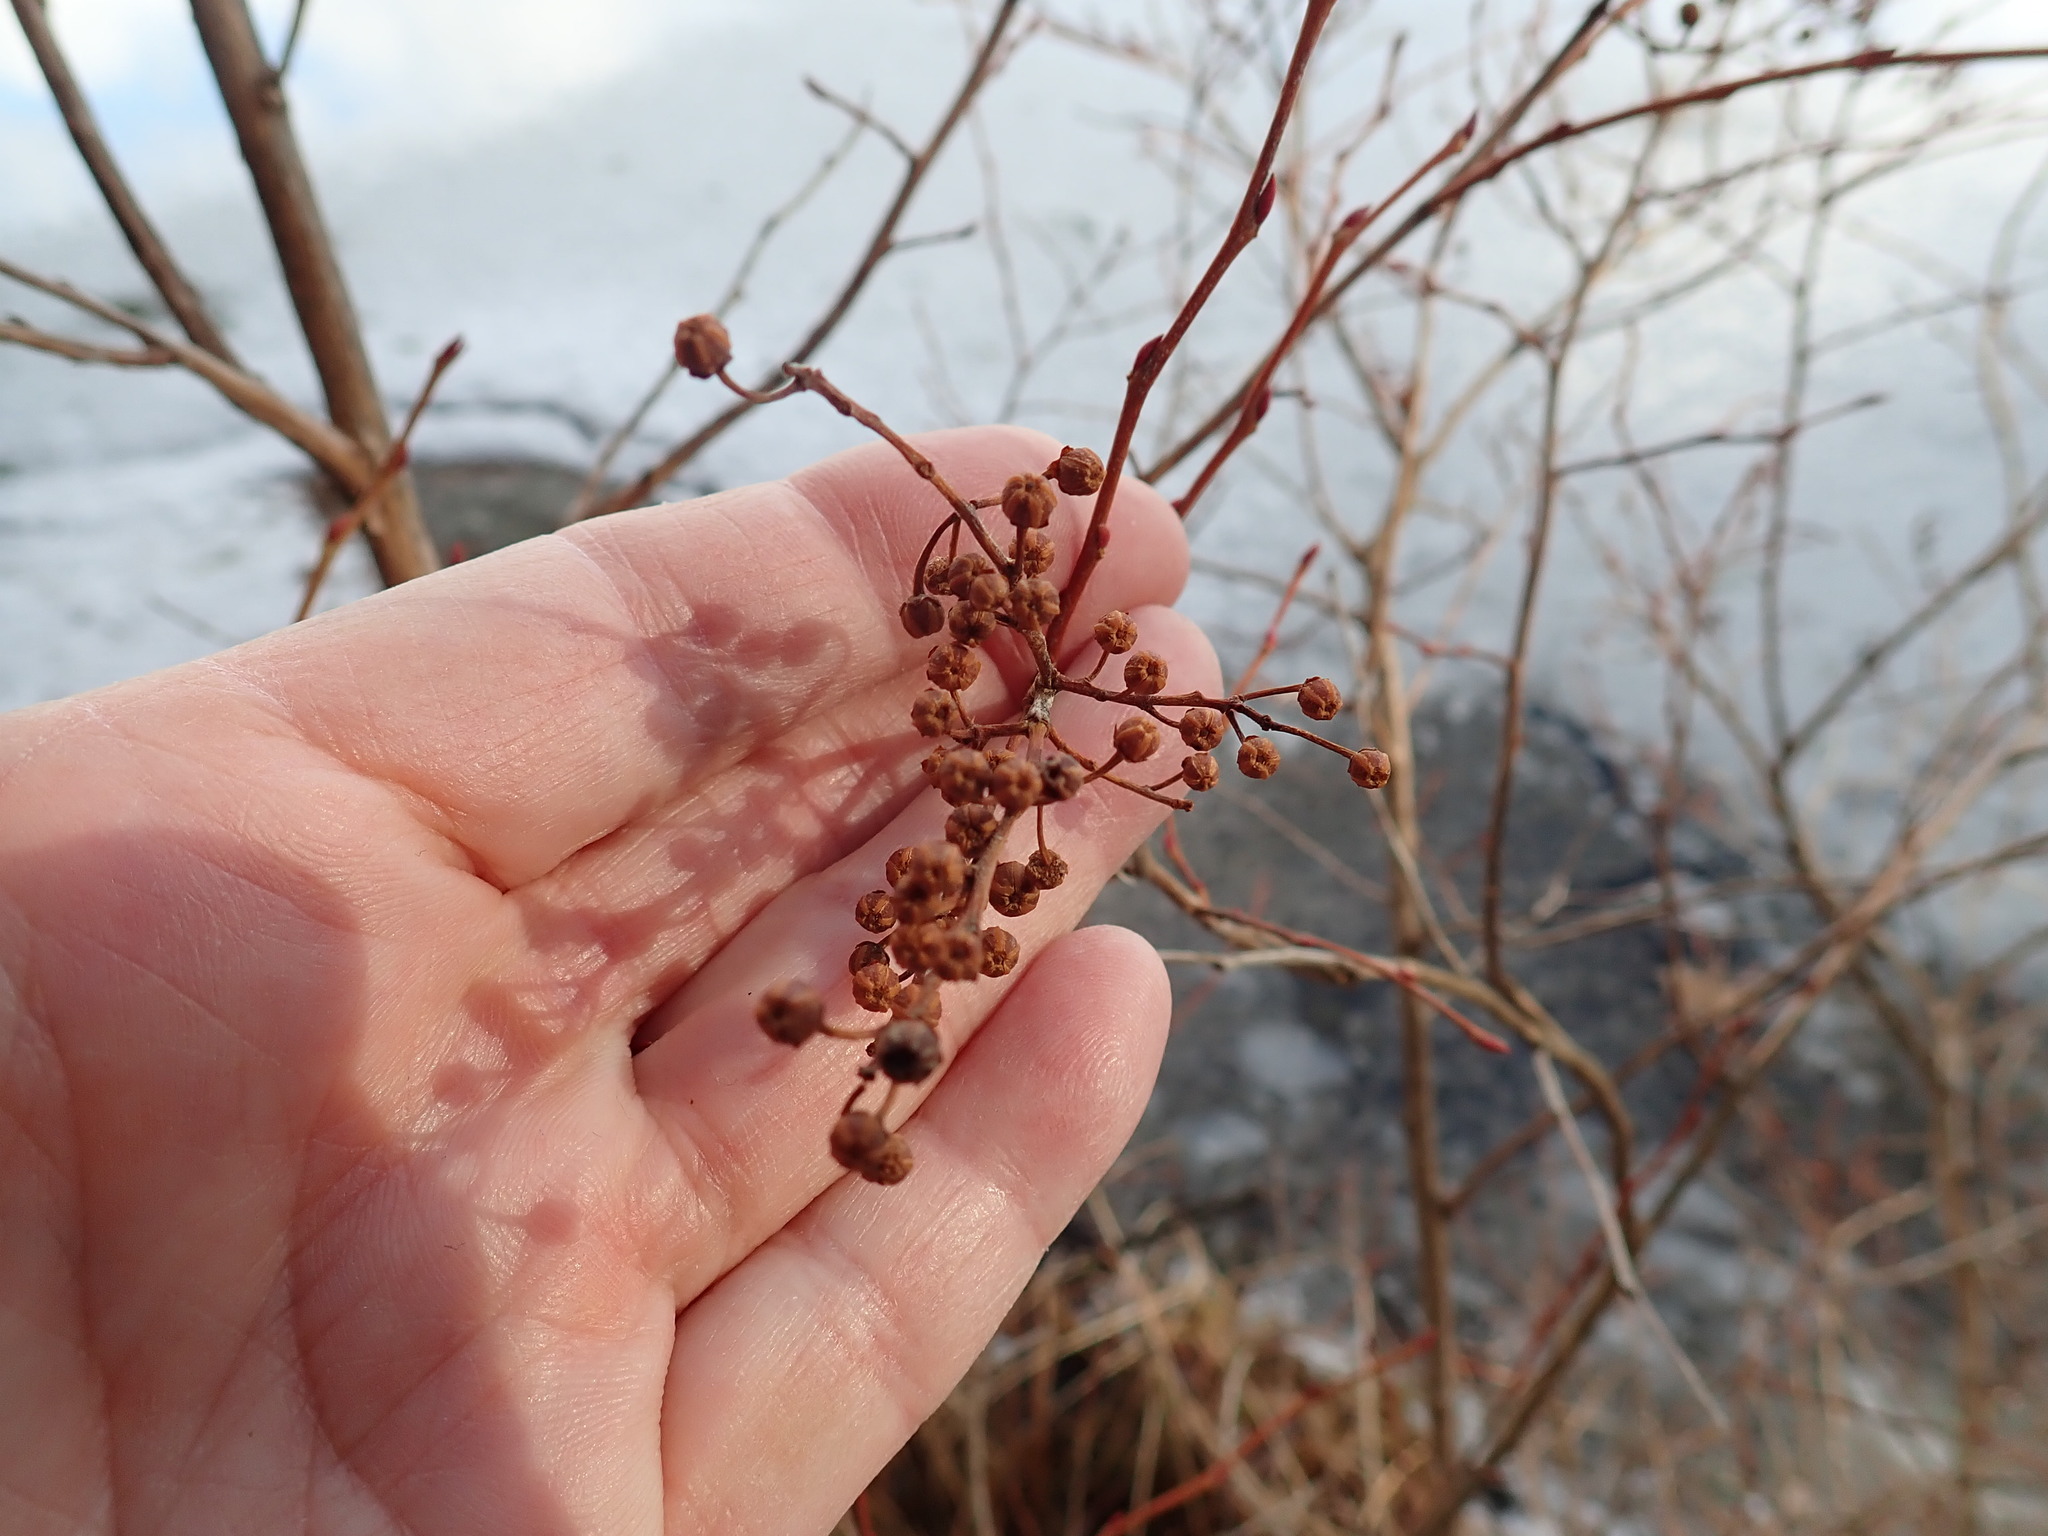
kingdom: Plantae
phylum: Tracheophyta
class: Magnoliopsida
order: Ericales
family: Ericaceae
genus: Lyonia
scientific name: Lyonia ligustrina
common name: Maleberry
